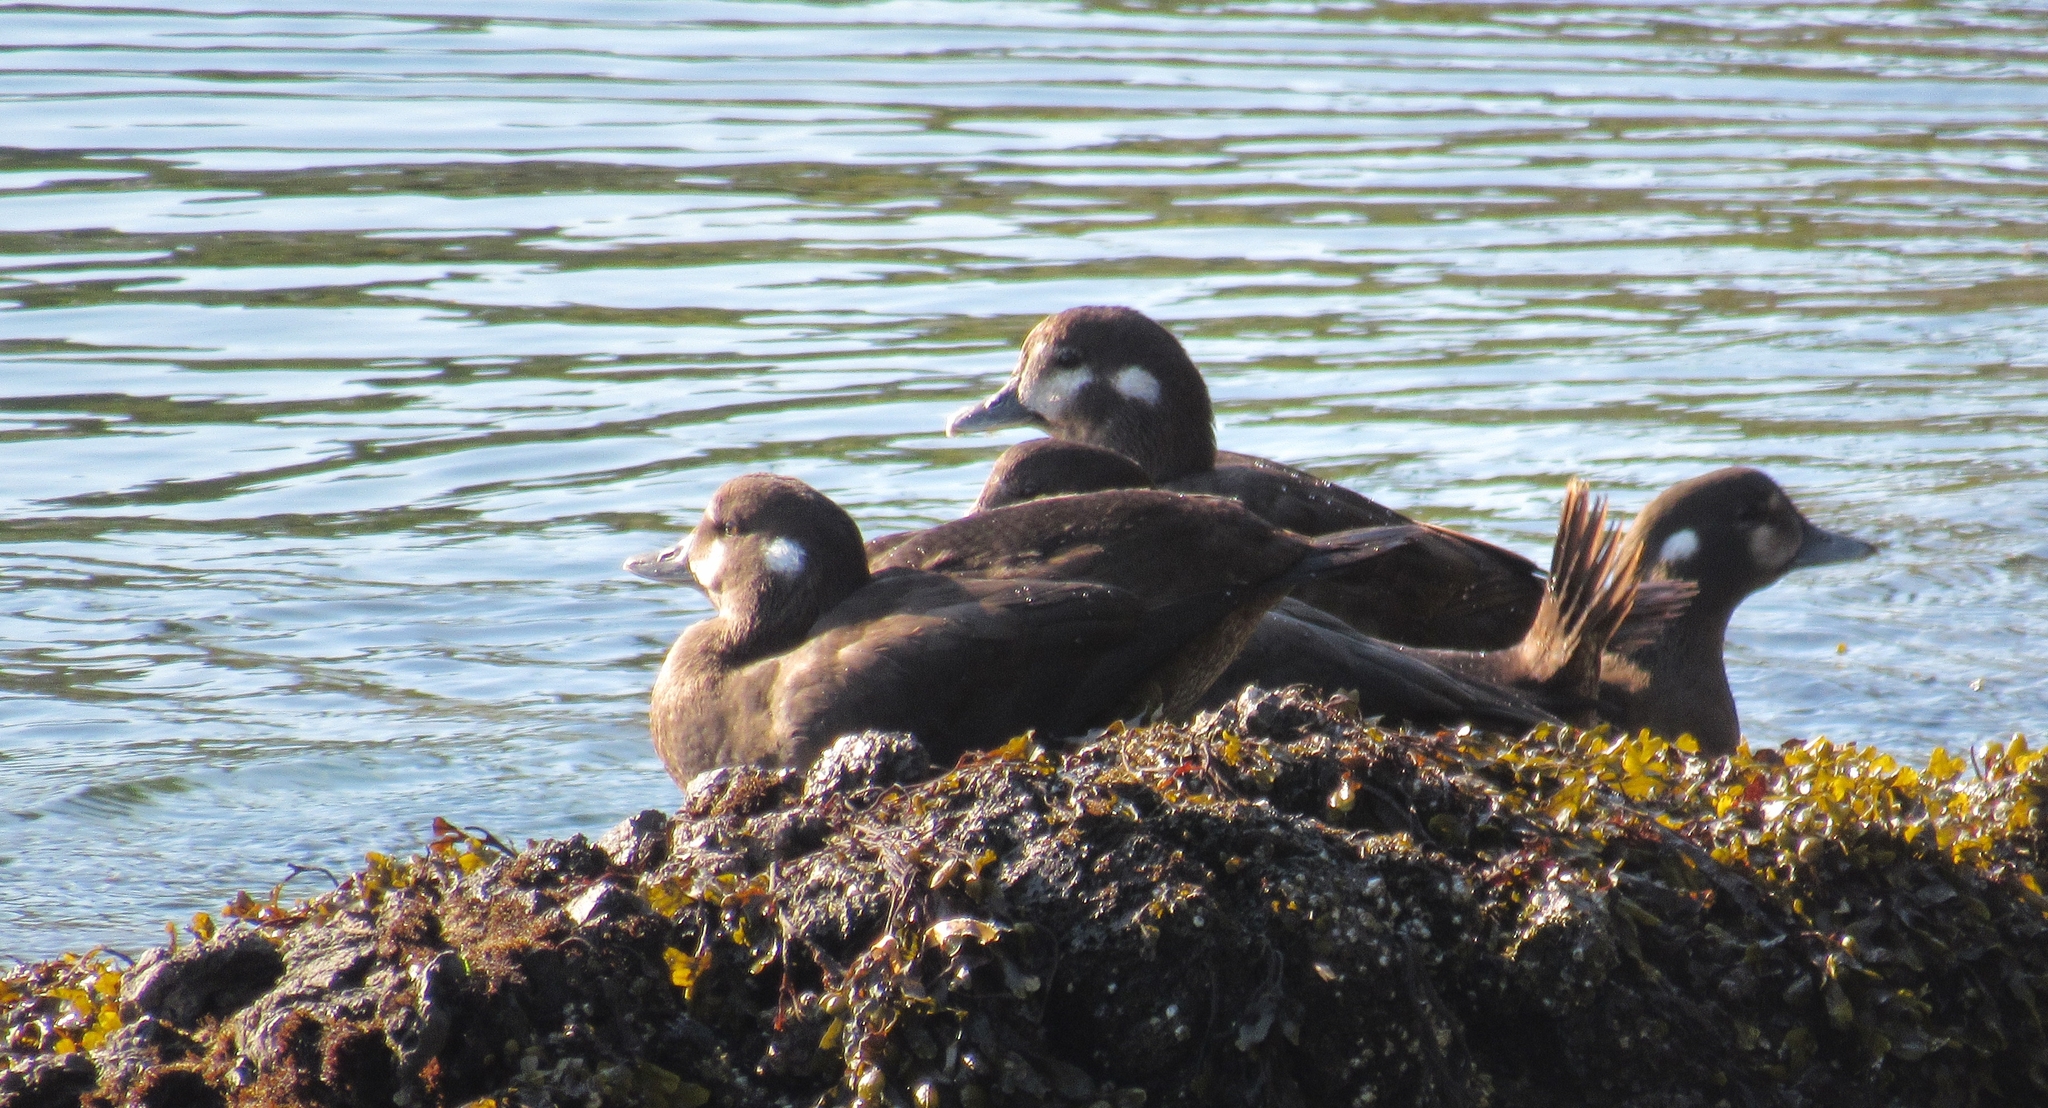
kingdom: Animalia
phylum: Chordata
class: Aves
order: Anseriformes
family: Anatidae
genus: Histrionicus
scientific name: Histrionicus histrionicus
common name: Harlequin duck
